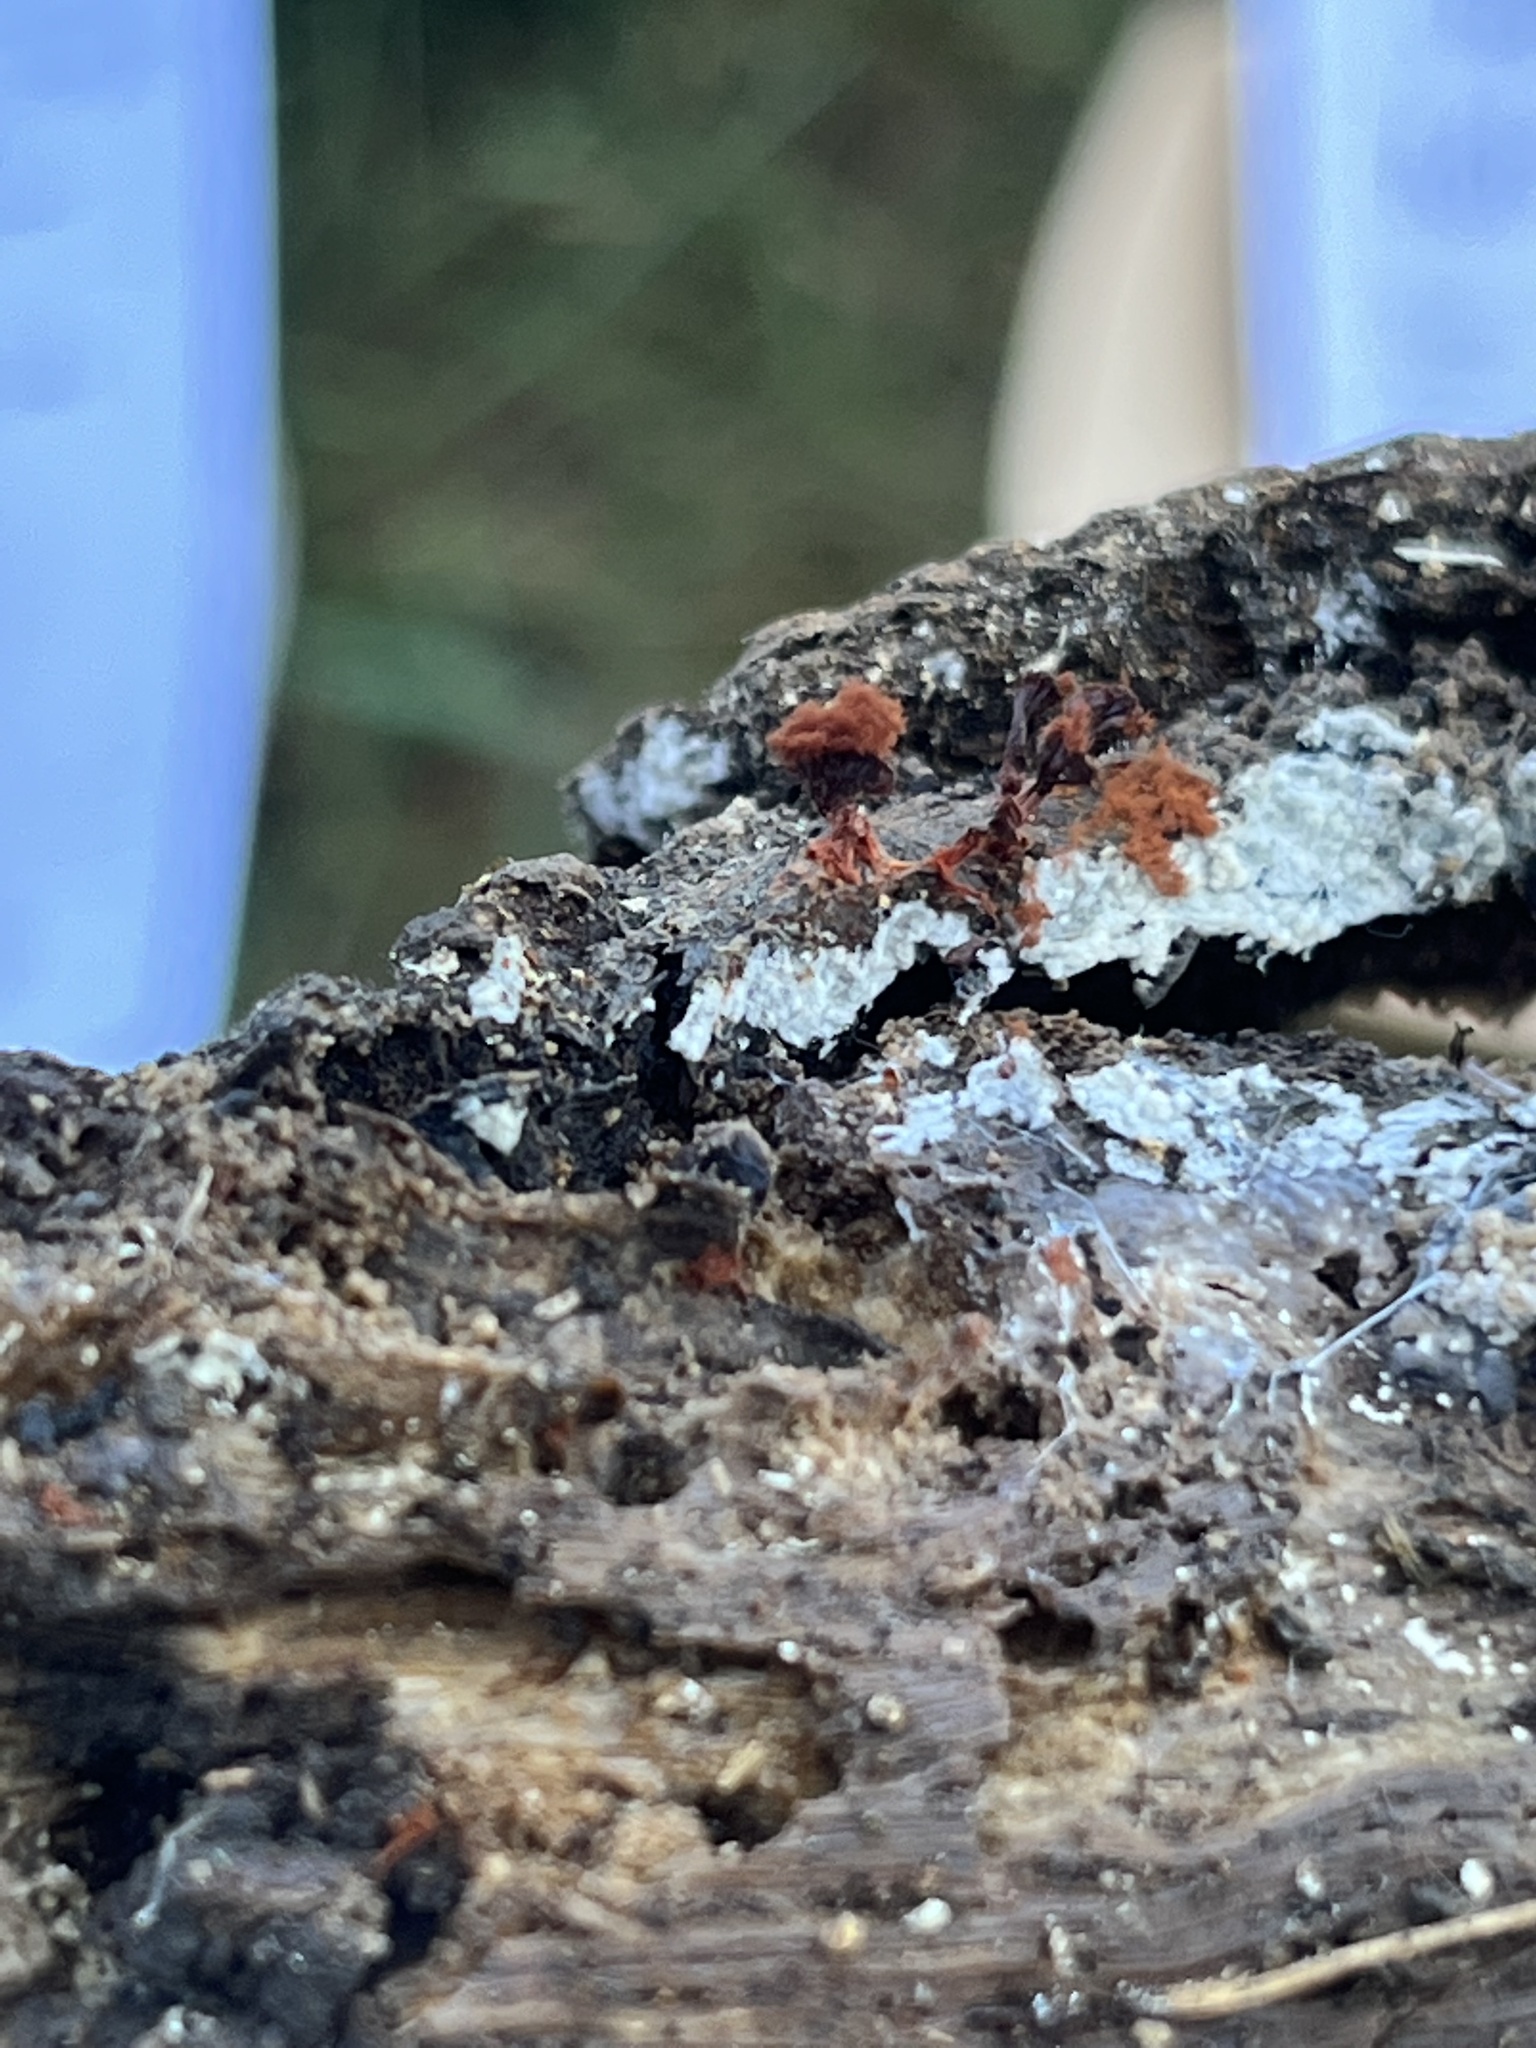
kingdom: Protozoa
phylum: Mycetozoa
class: Myxomycetes
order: Trichiales
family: Trichiaceae
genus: Metatrichia
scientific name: Metatrichia vesparia
